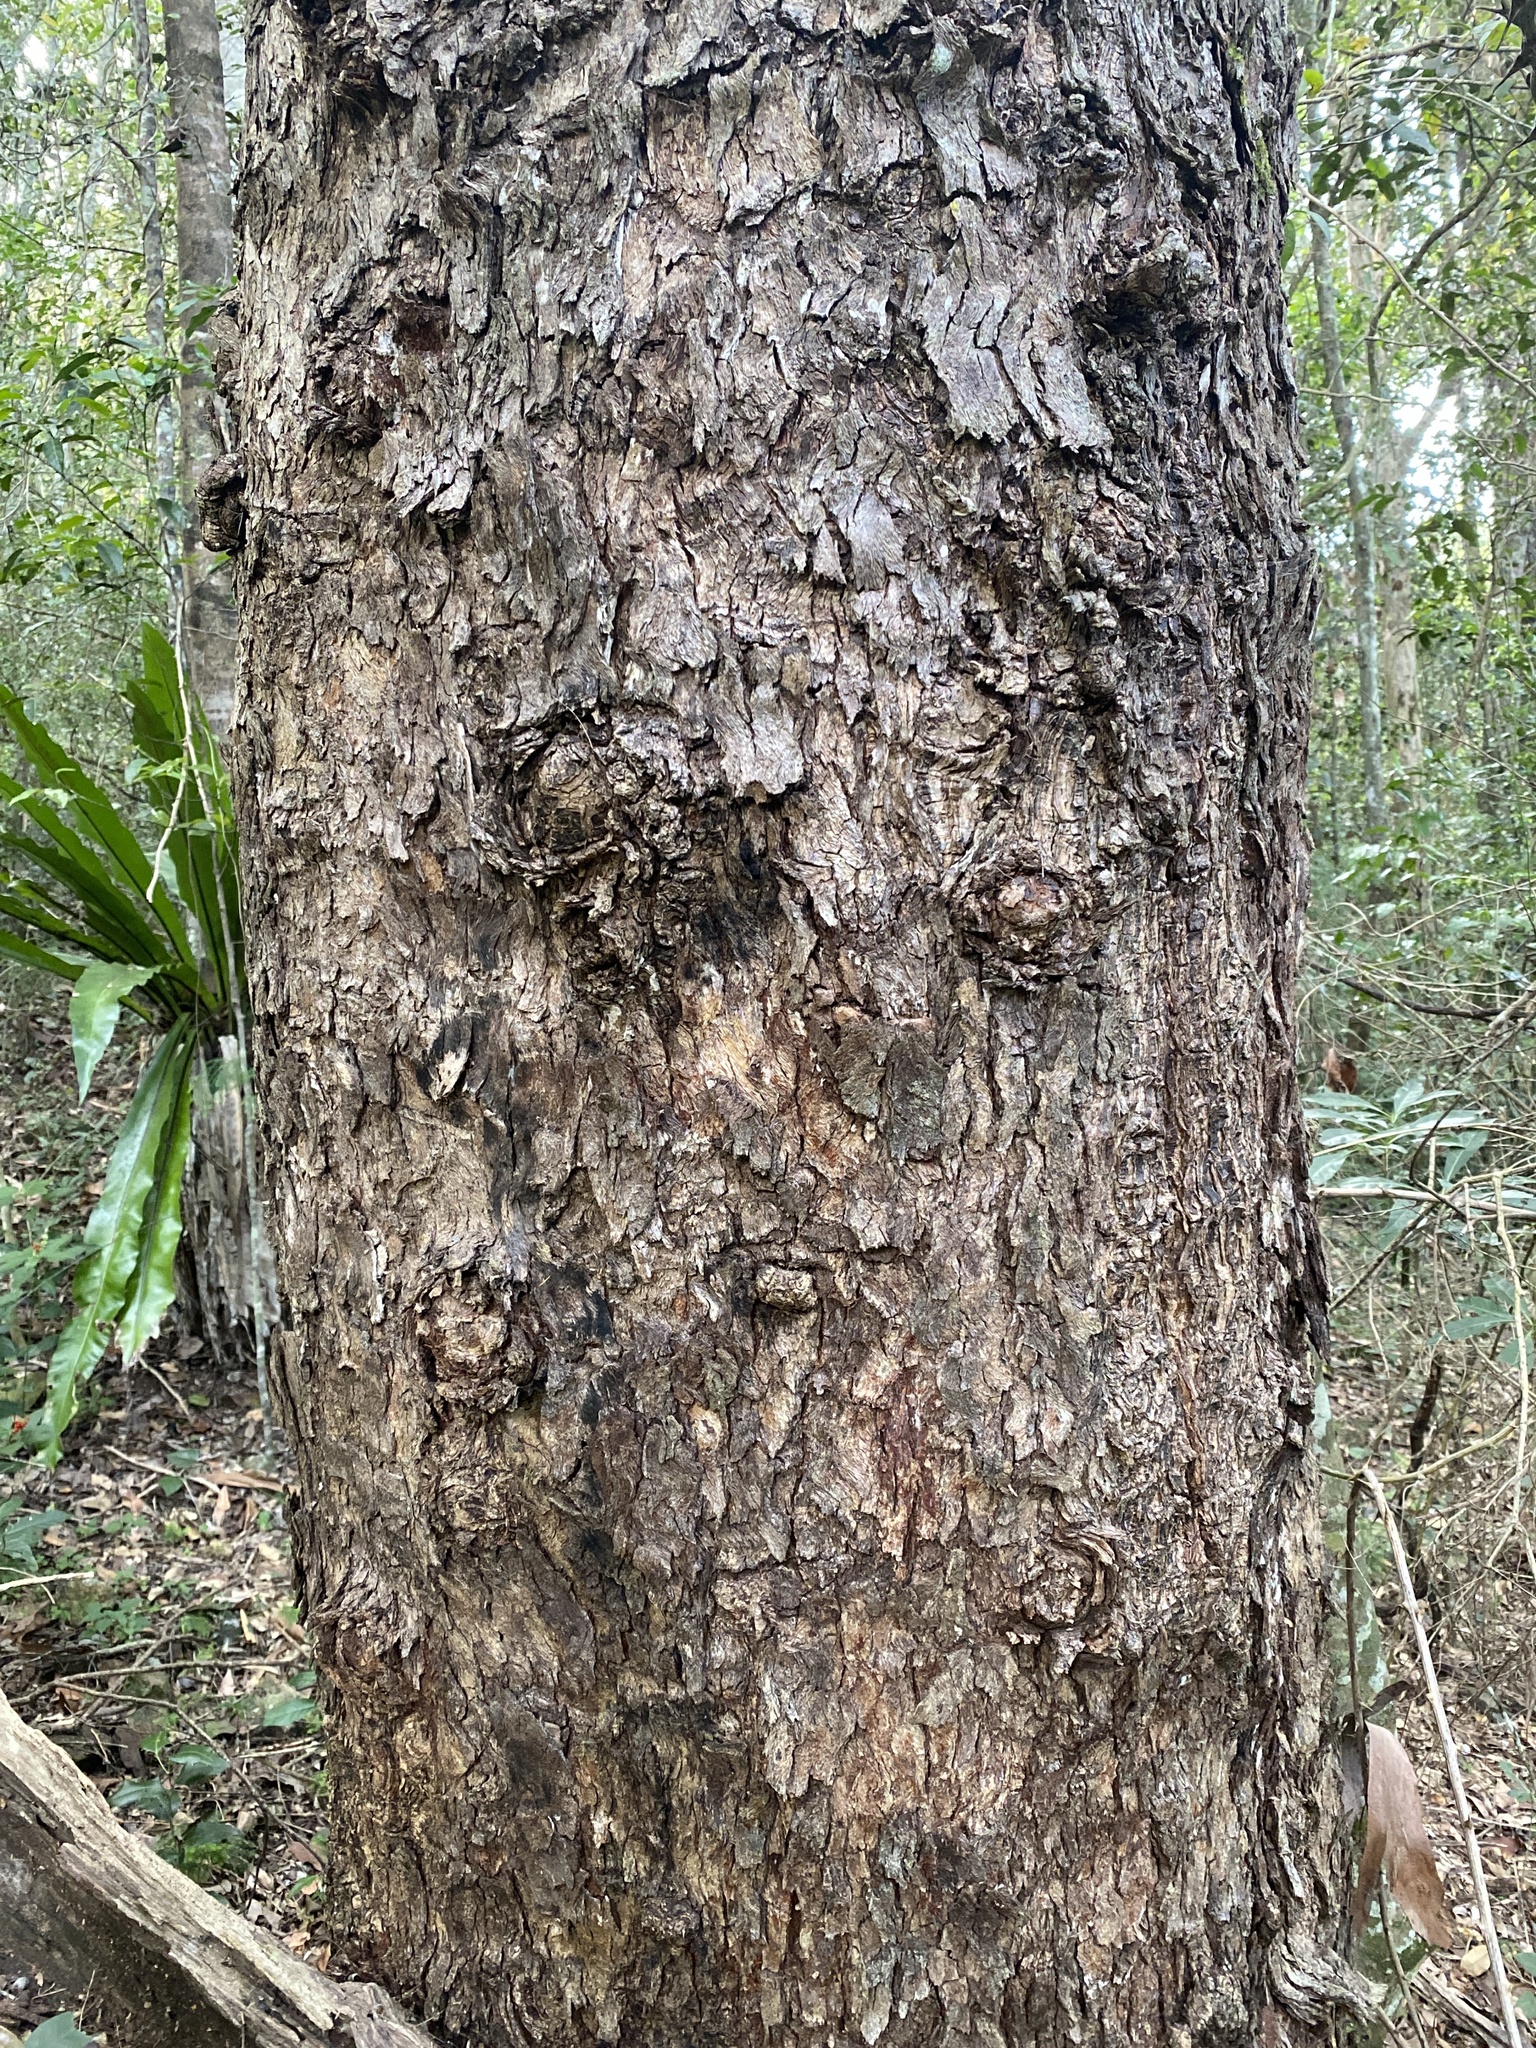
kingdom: Plantae
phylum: Tracheophyta
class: Magnoliopsida
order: Myrtales
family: Myrtaceae
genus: Lophostemon
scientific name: Lophostemon confertus
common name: Brisbane box
